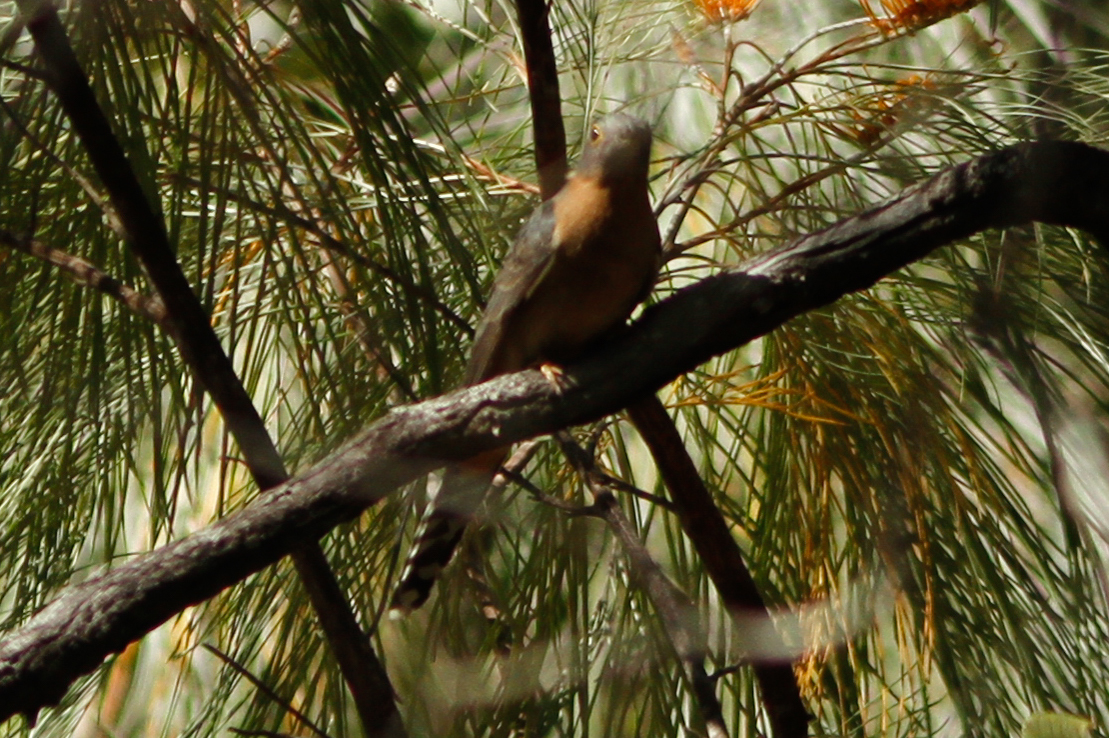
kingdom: Animalia
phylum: Chordata
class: Aves
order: Cuculiformes
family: Cuculidae
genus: Cacomantis
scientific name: Cacomantis flabelliformis
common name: Fan-tailed cuckoo
